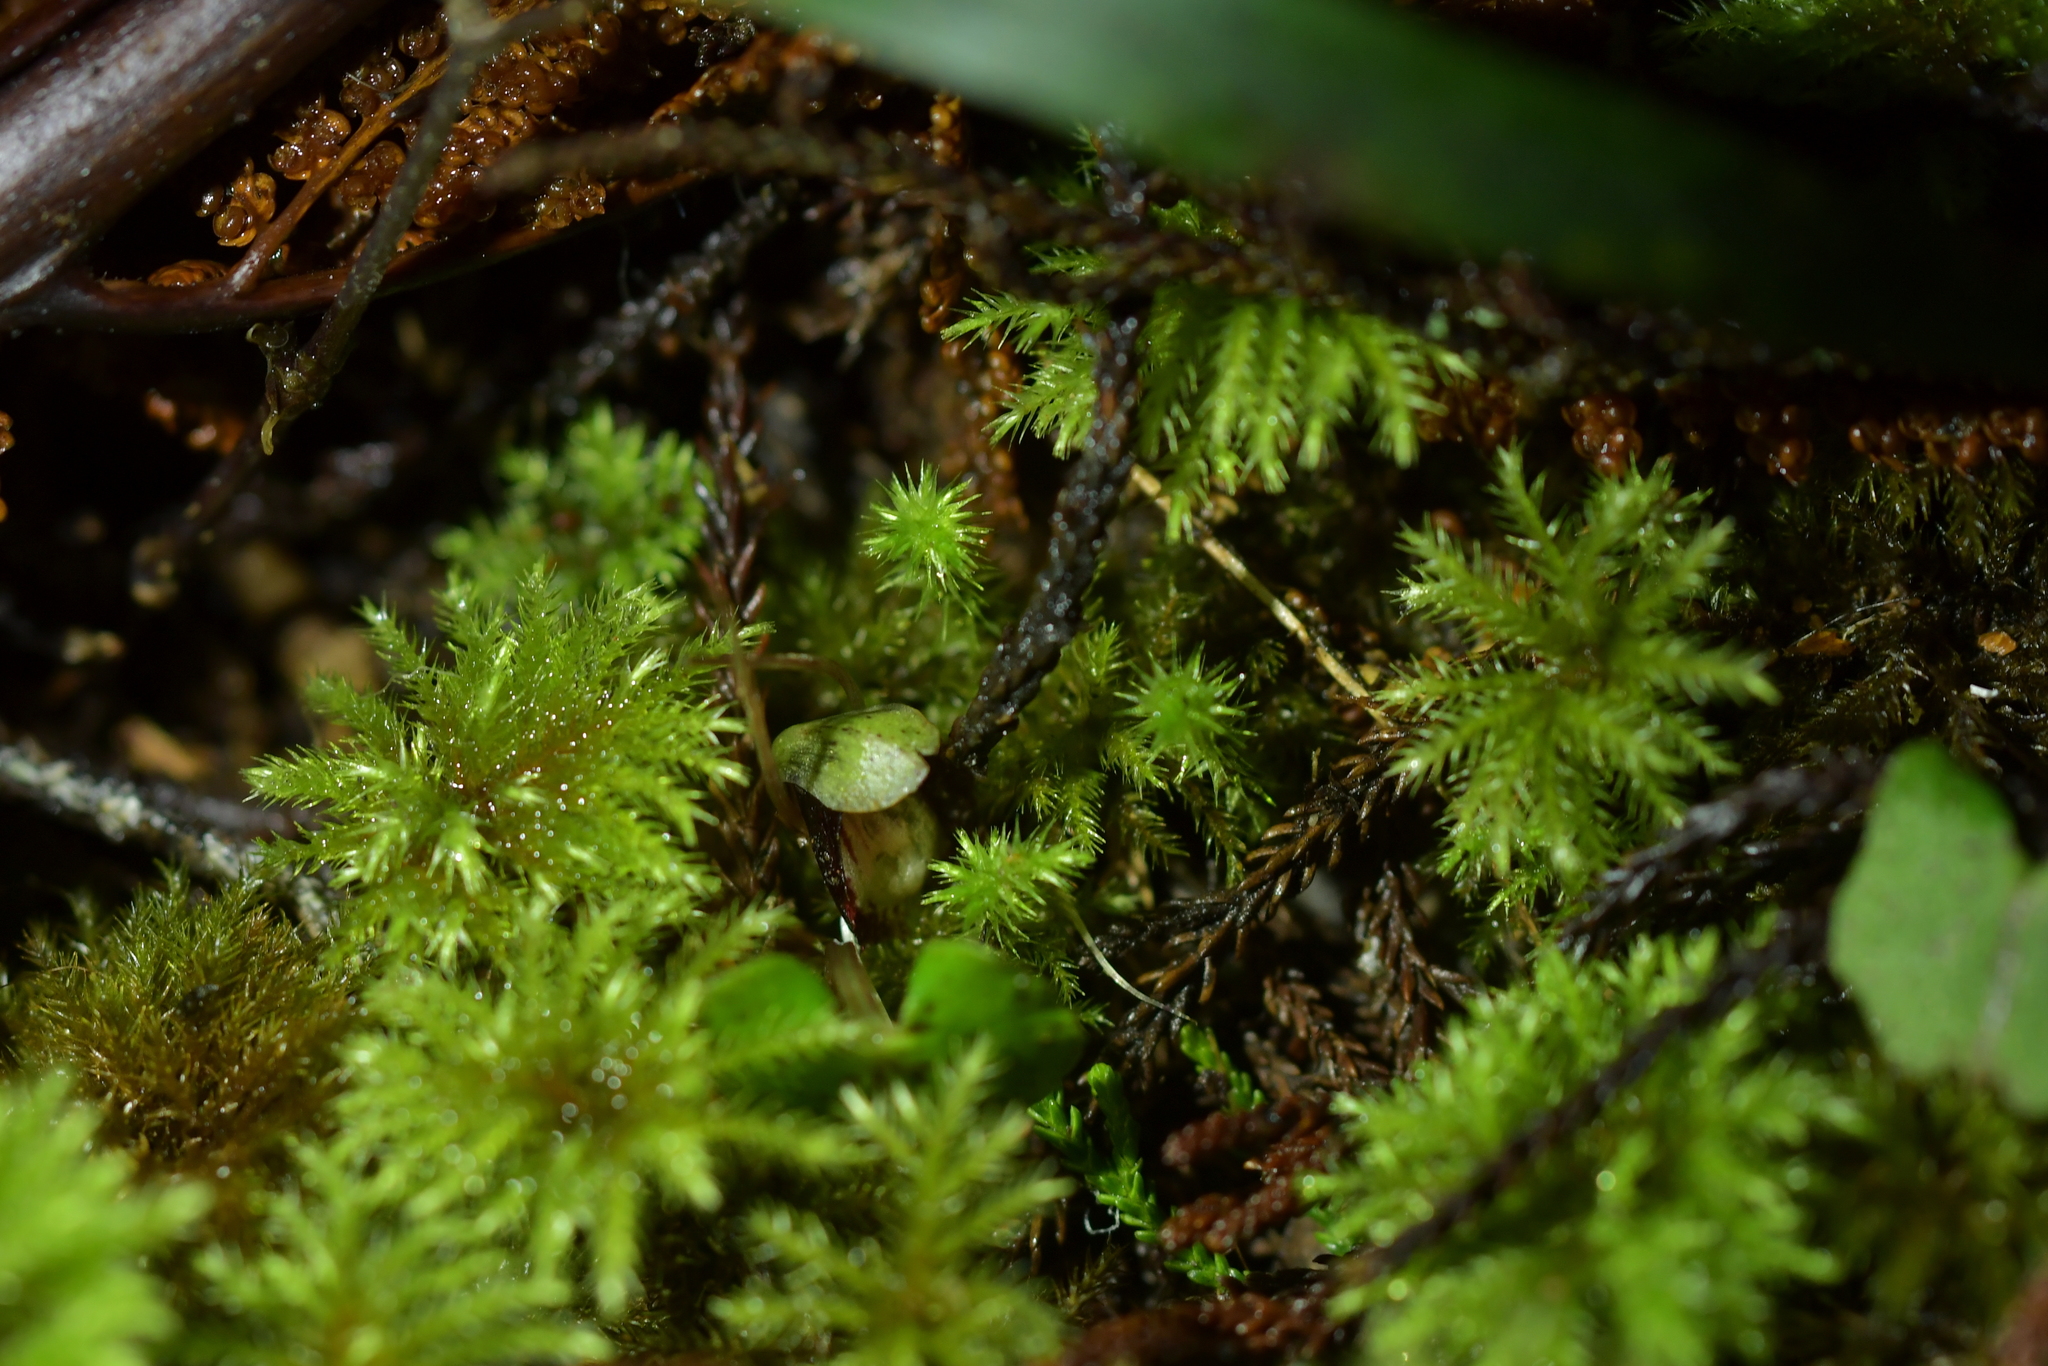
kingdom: Plantae
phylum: Tracheophyta
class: Liliopsida
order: Asparagales
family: Orchidaceae
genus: Corybas
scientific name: Corybas sanctigeorgianus
